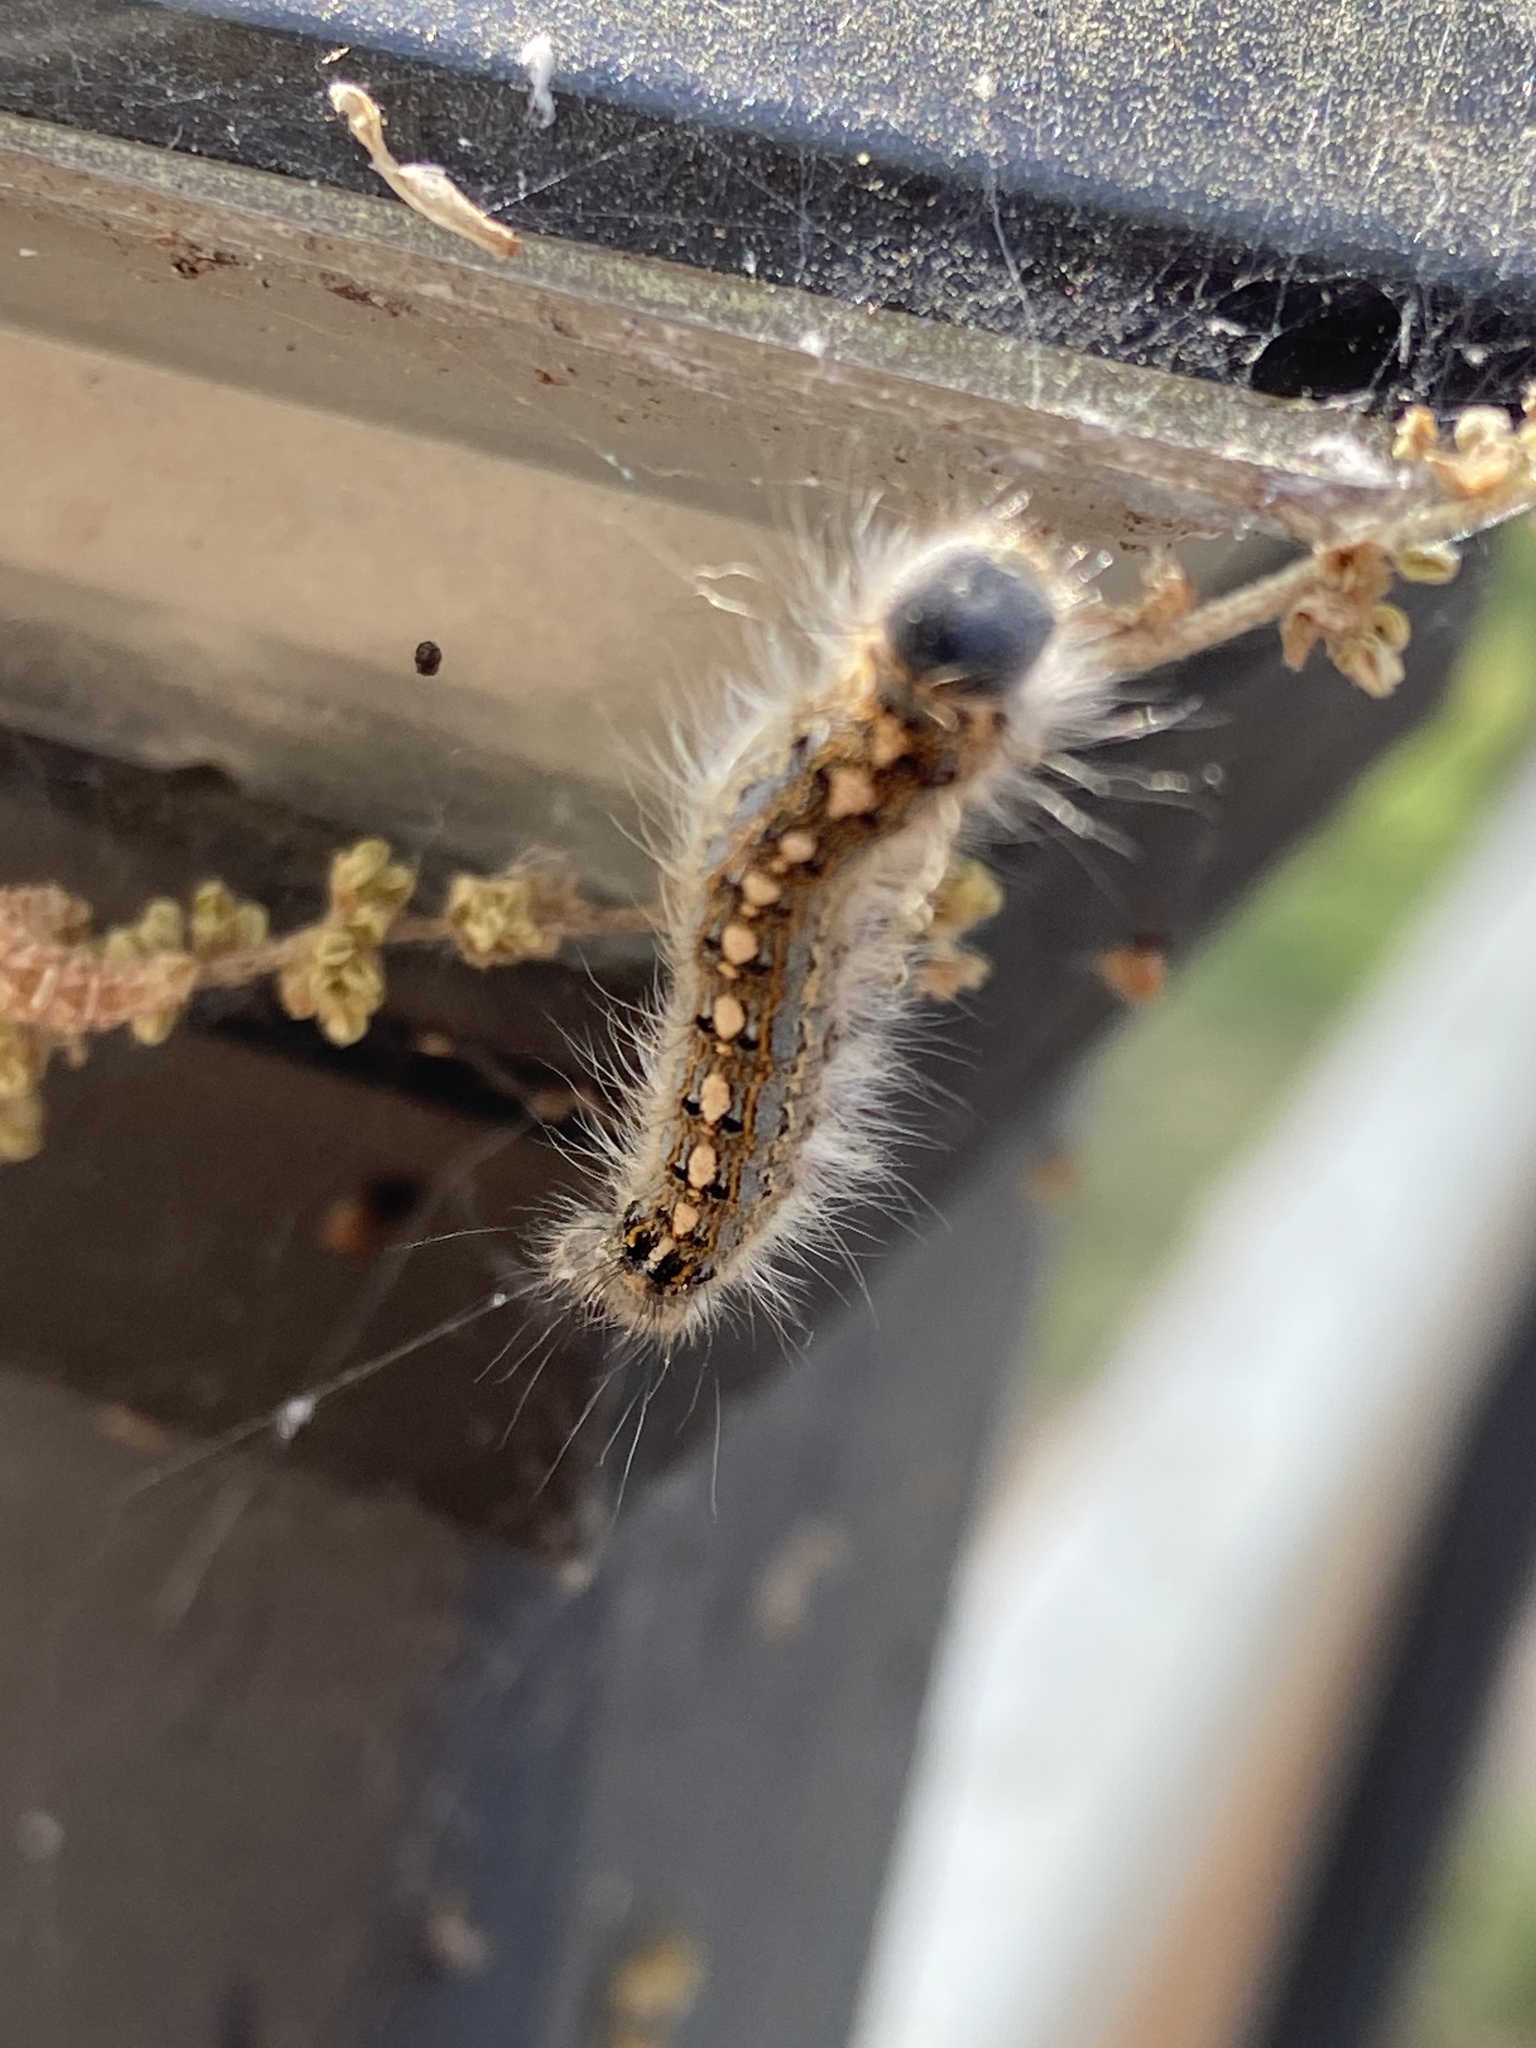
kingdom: Animalia
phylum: Arthropoda
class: Insecta
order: Lepidoptera
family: Lasiocampidae
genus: Malacosoma
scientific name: Malacosoma disstria
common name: Forest tent caterpillar
